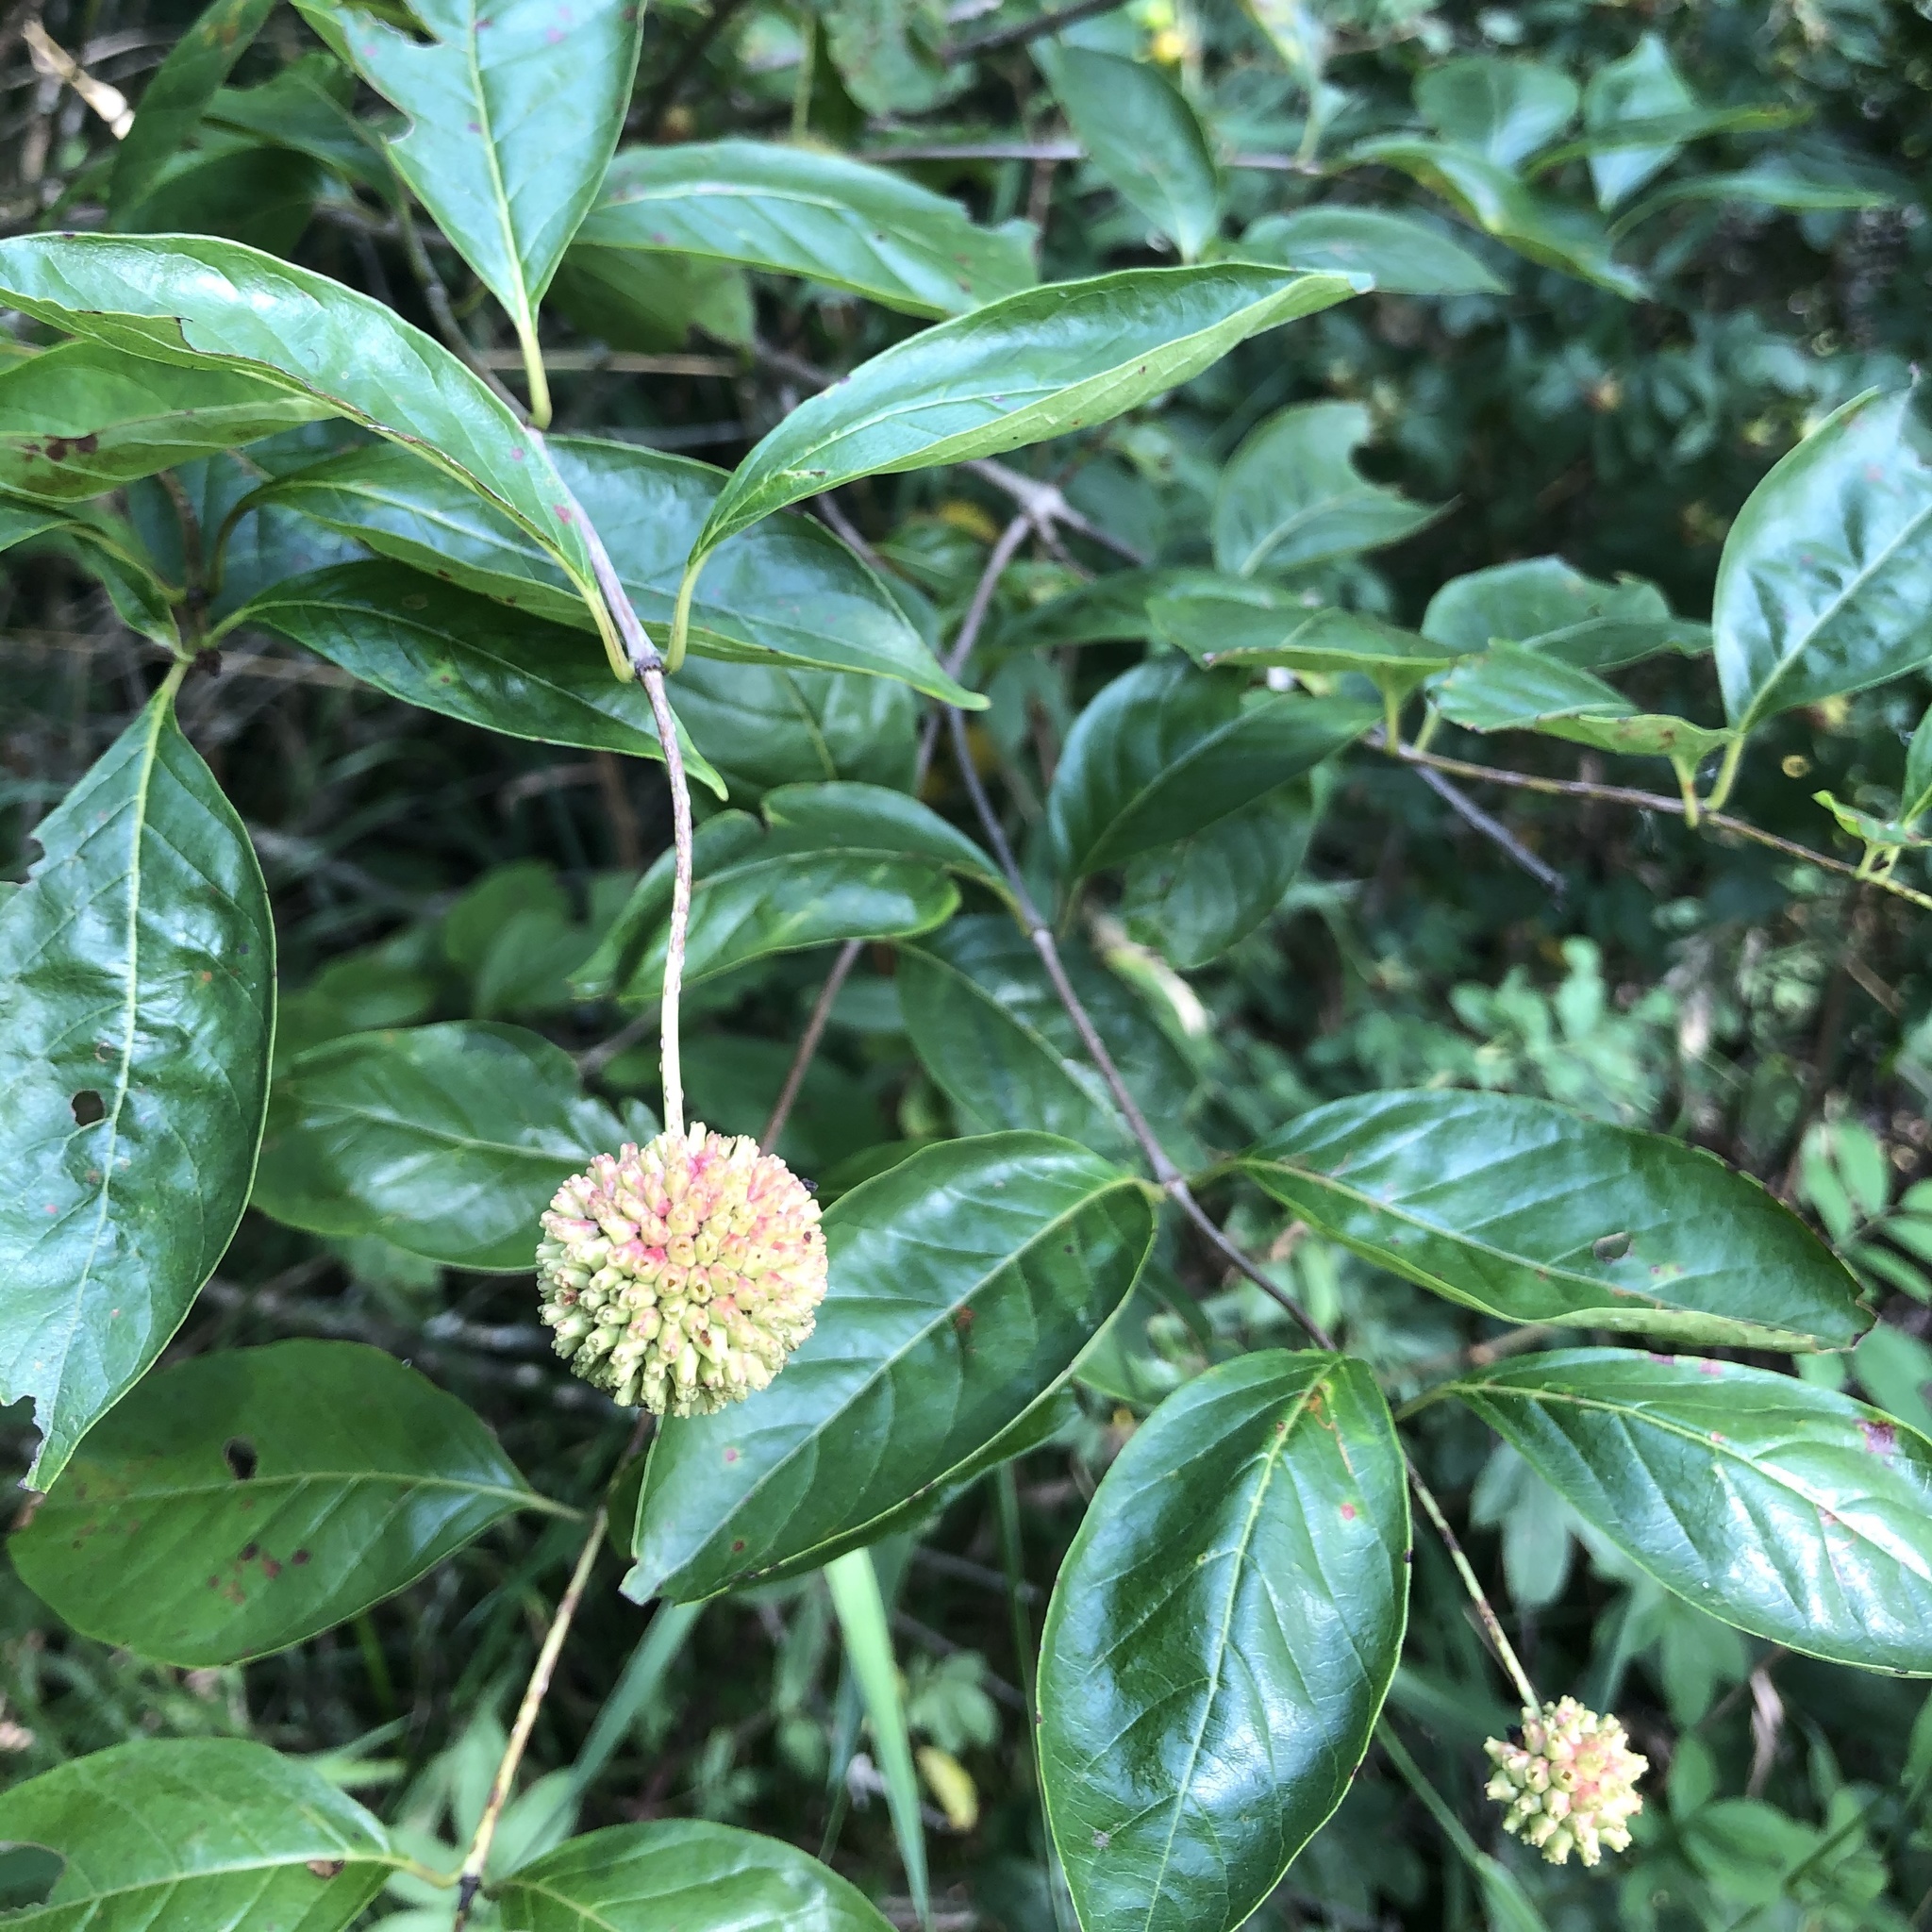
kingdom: Plantae
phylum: Tracheophyta
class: Magnoliopsida
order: Gentianales
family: Rubiaceae
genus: Cephalanthus
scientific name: Cephalanthus occidentalis
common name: Button-willow
